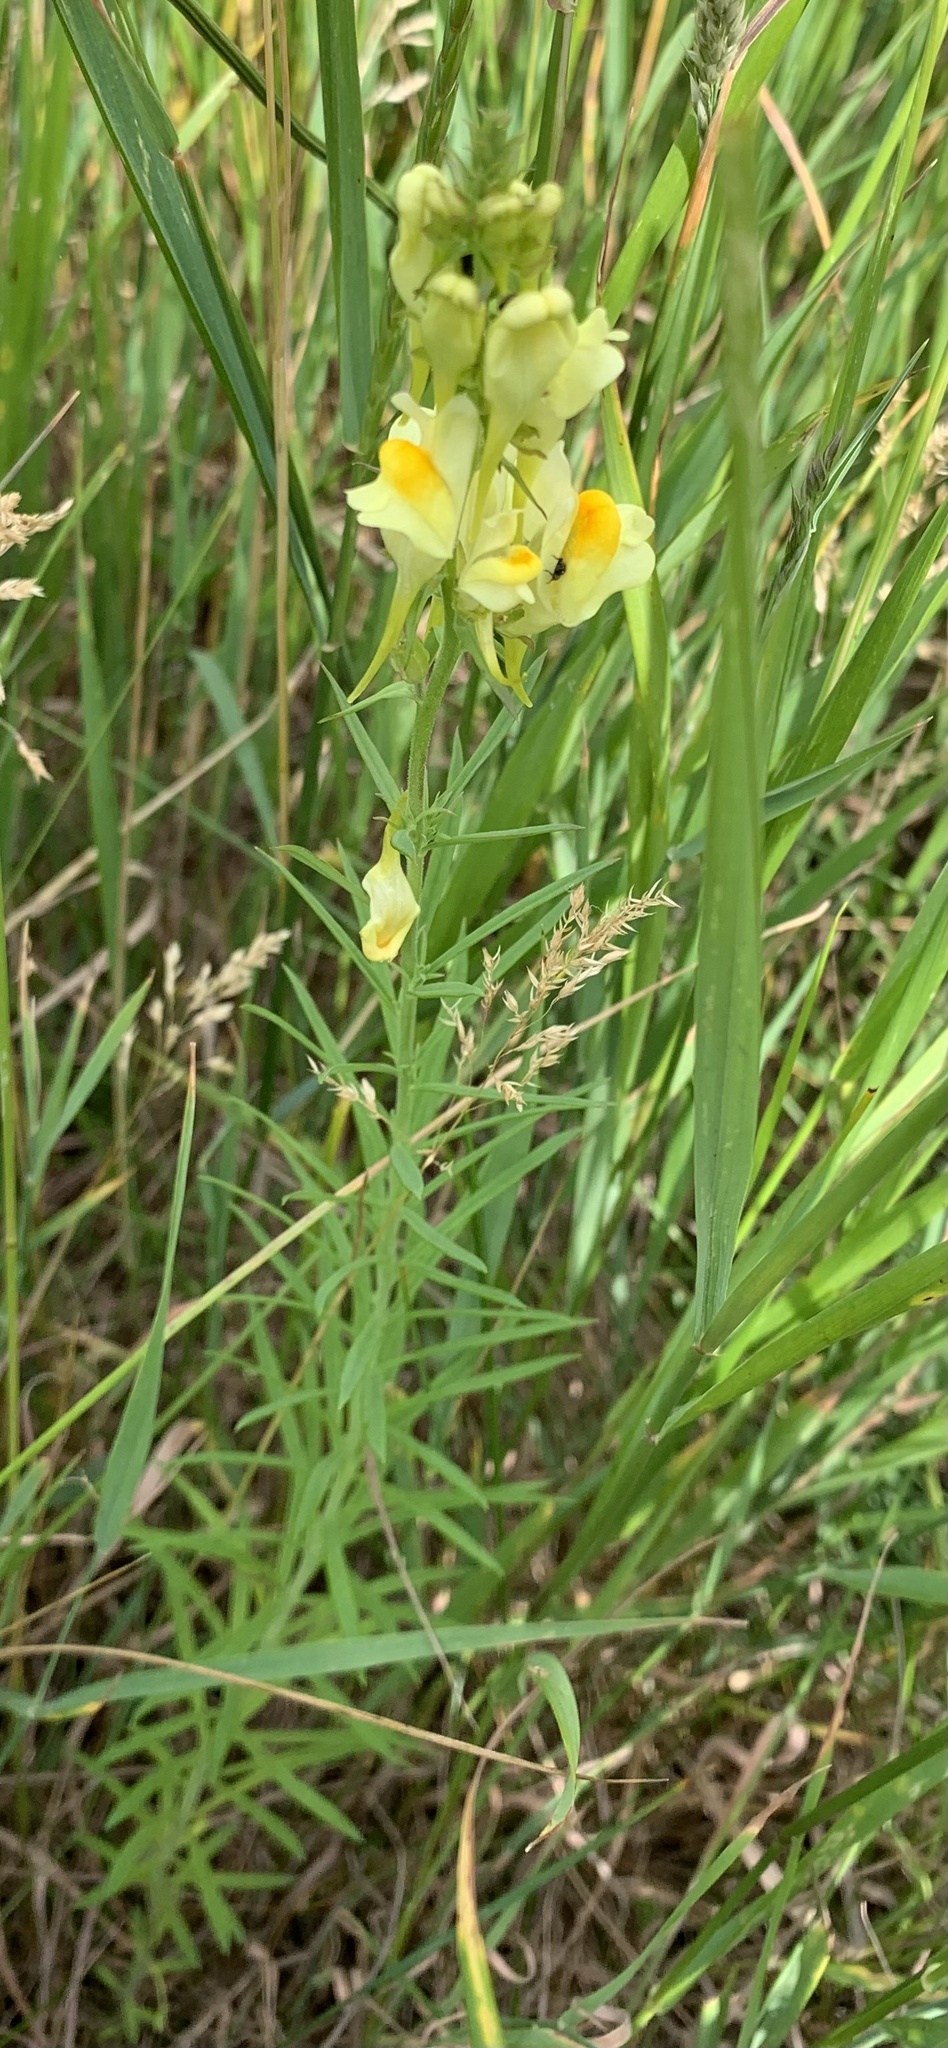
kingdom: Plantae
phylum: Tracheophyta
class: Magnoliopsida
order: Lamiales
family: Plantaginaceae
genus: Linaria
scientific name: Linaria vulgaris
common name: Butter and eggs
